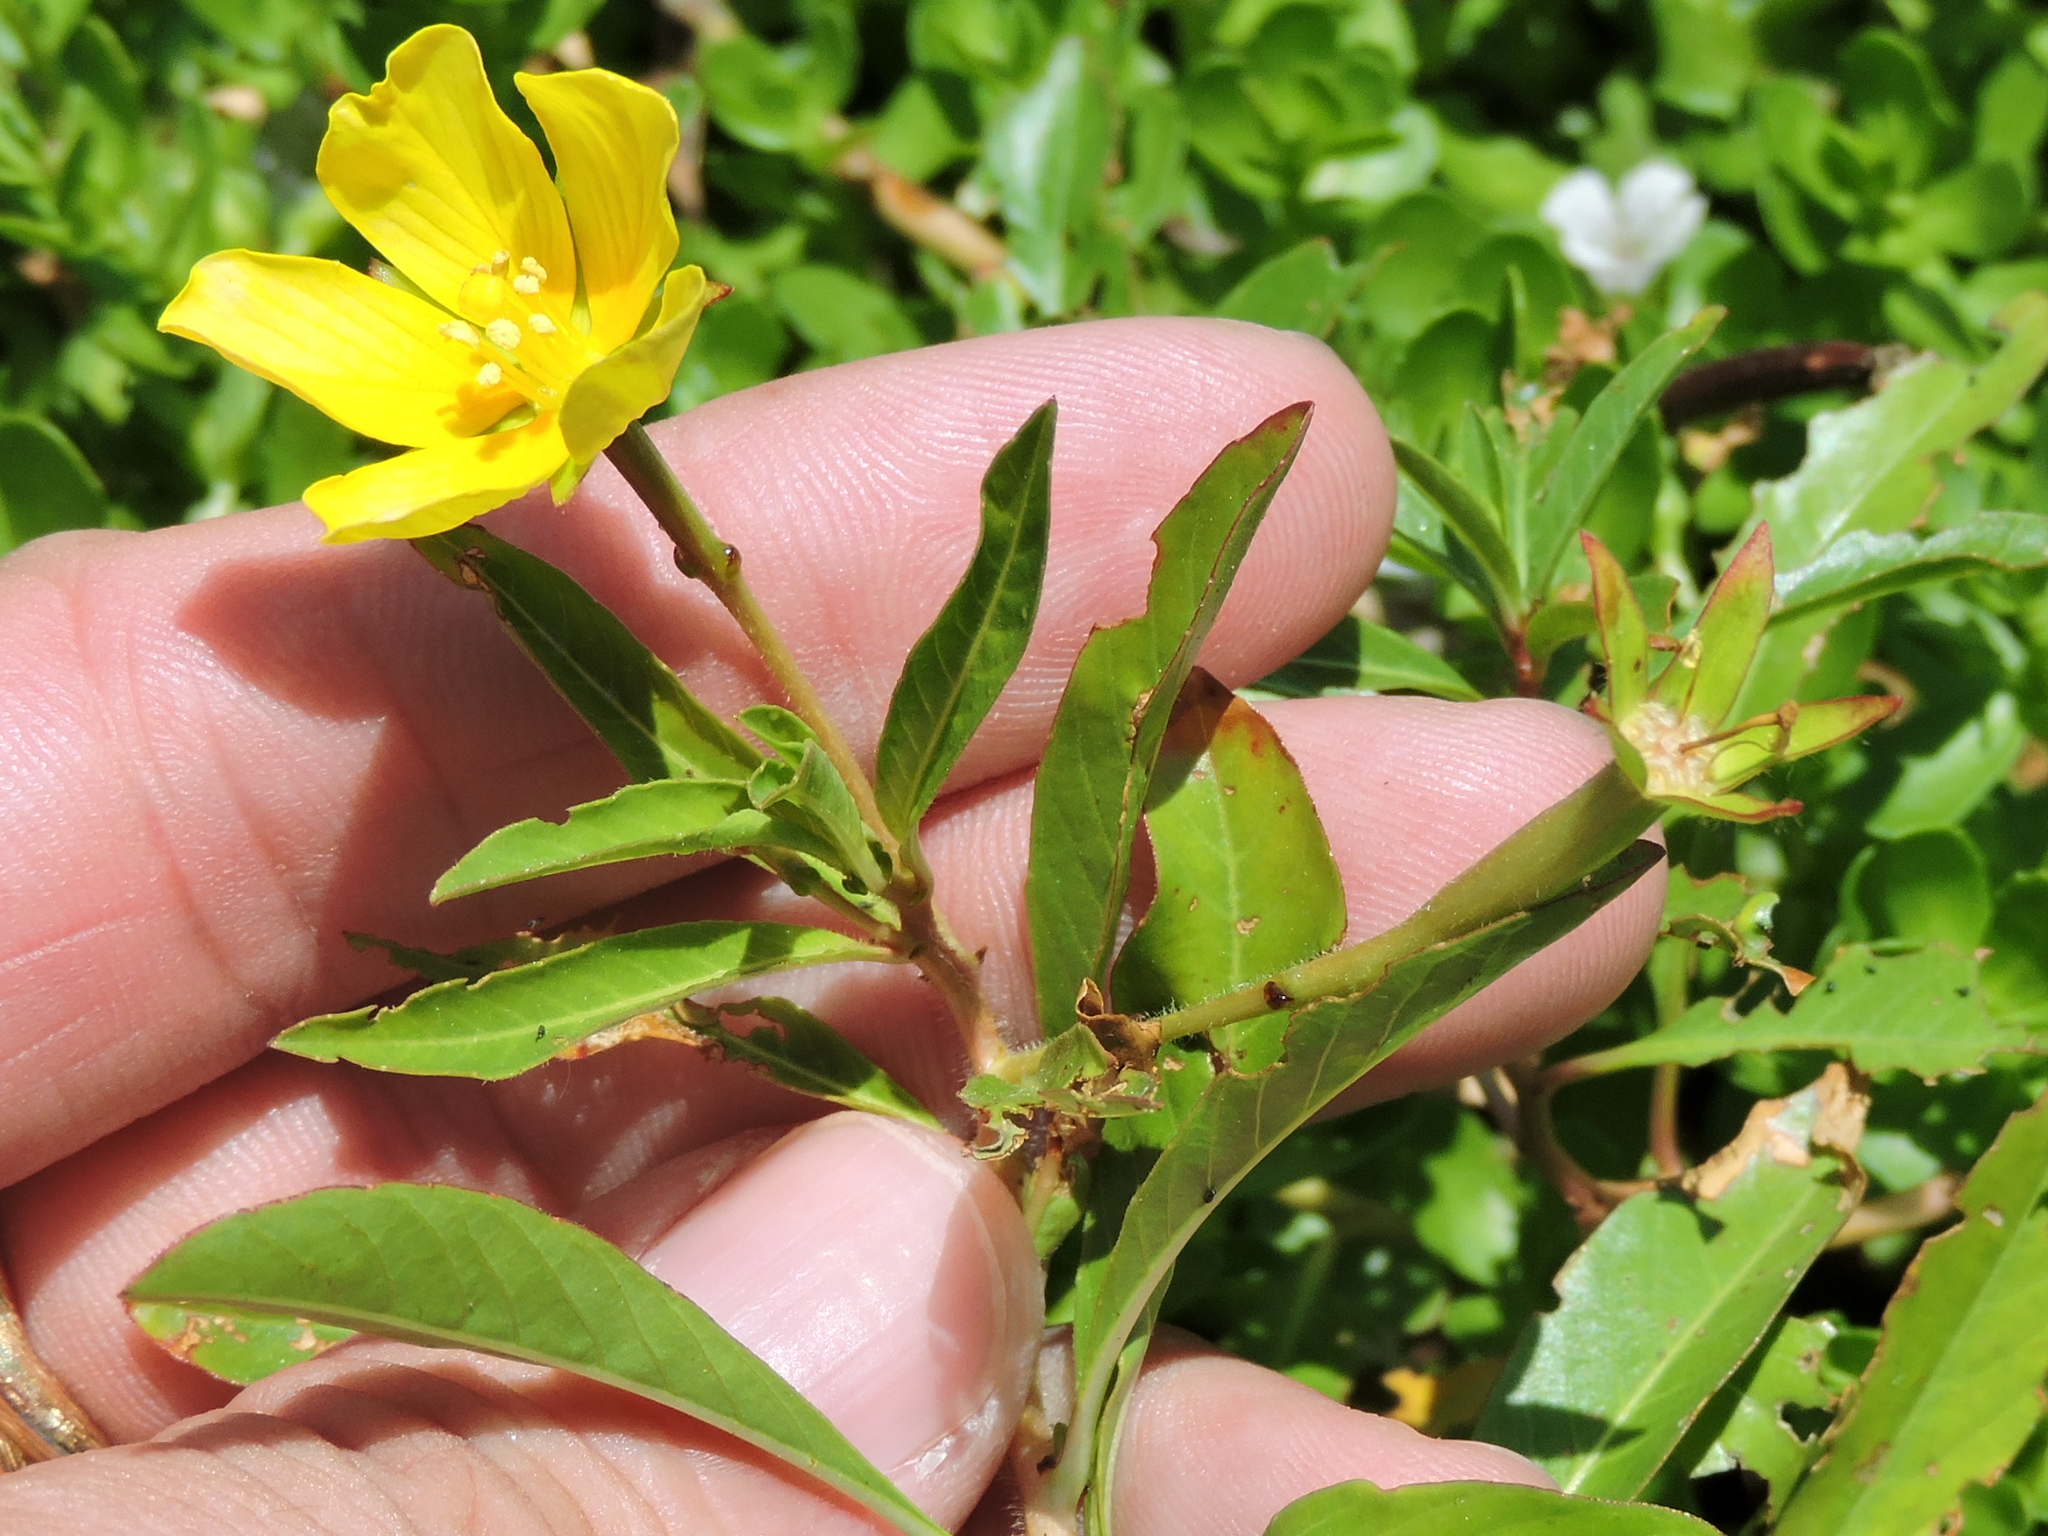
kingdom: Plantae
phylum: Tracheophyta
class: Magnoliopsida
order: Myrtales
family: Onagraceae
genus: Ludwigia
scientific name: Ludwigia peploides
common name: Floating primrose-willow
